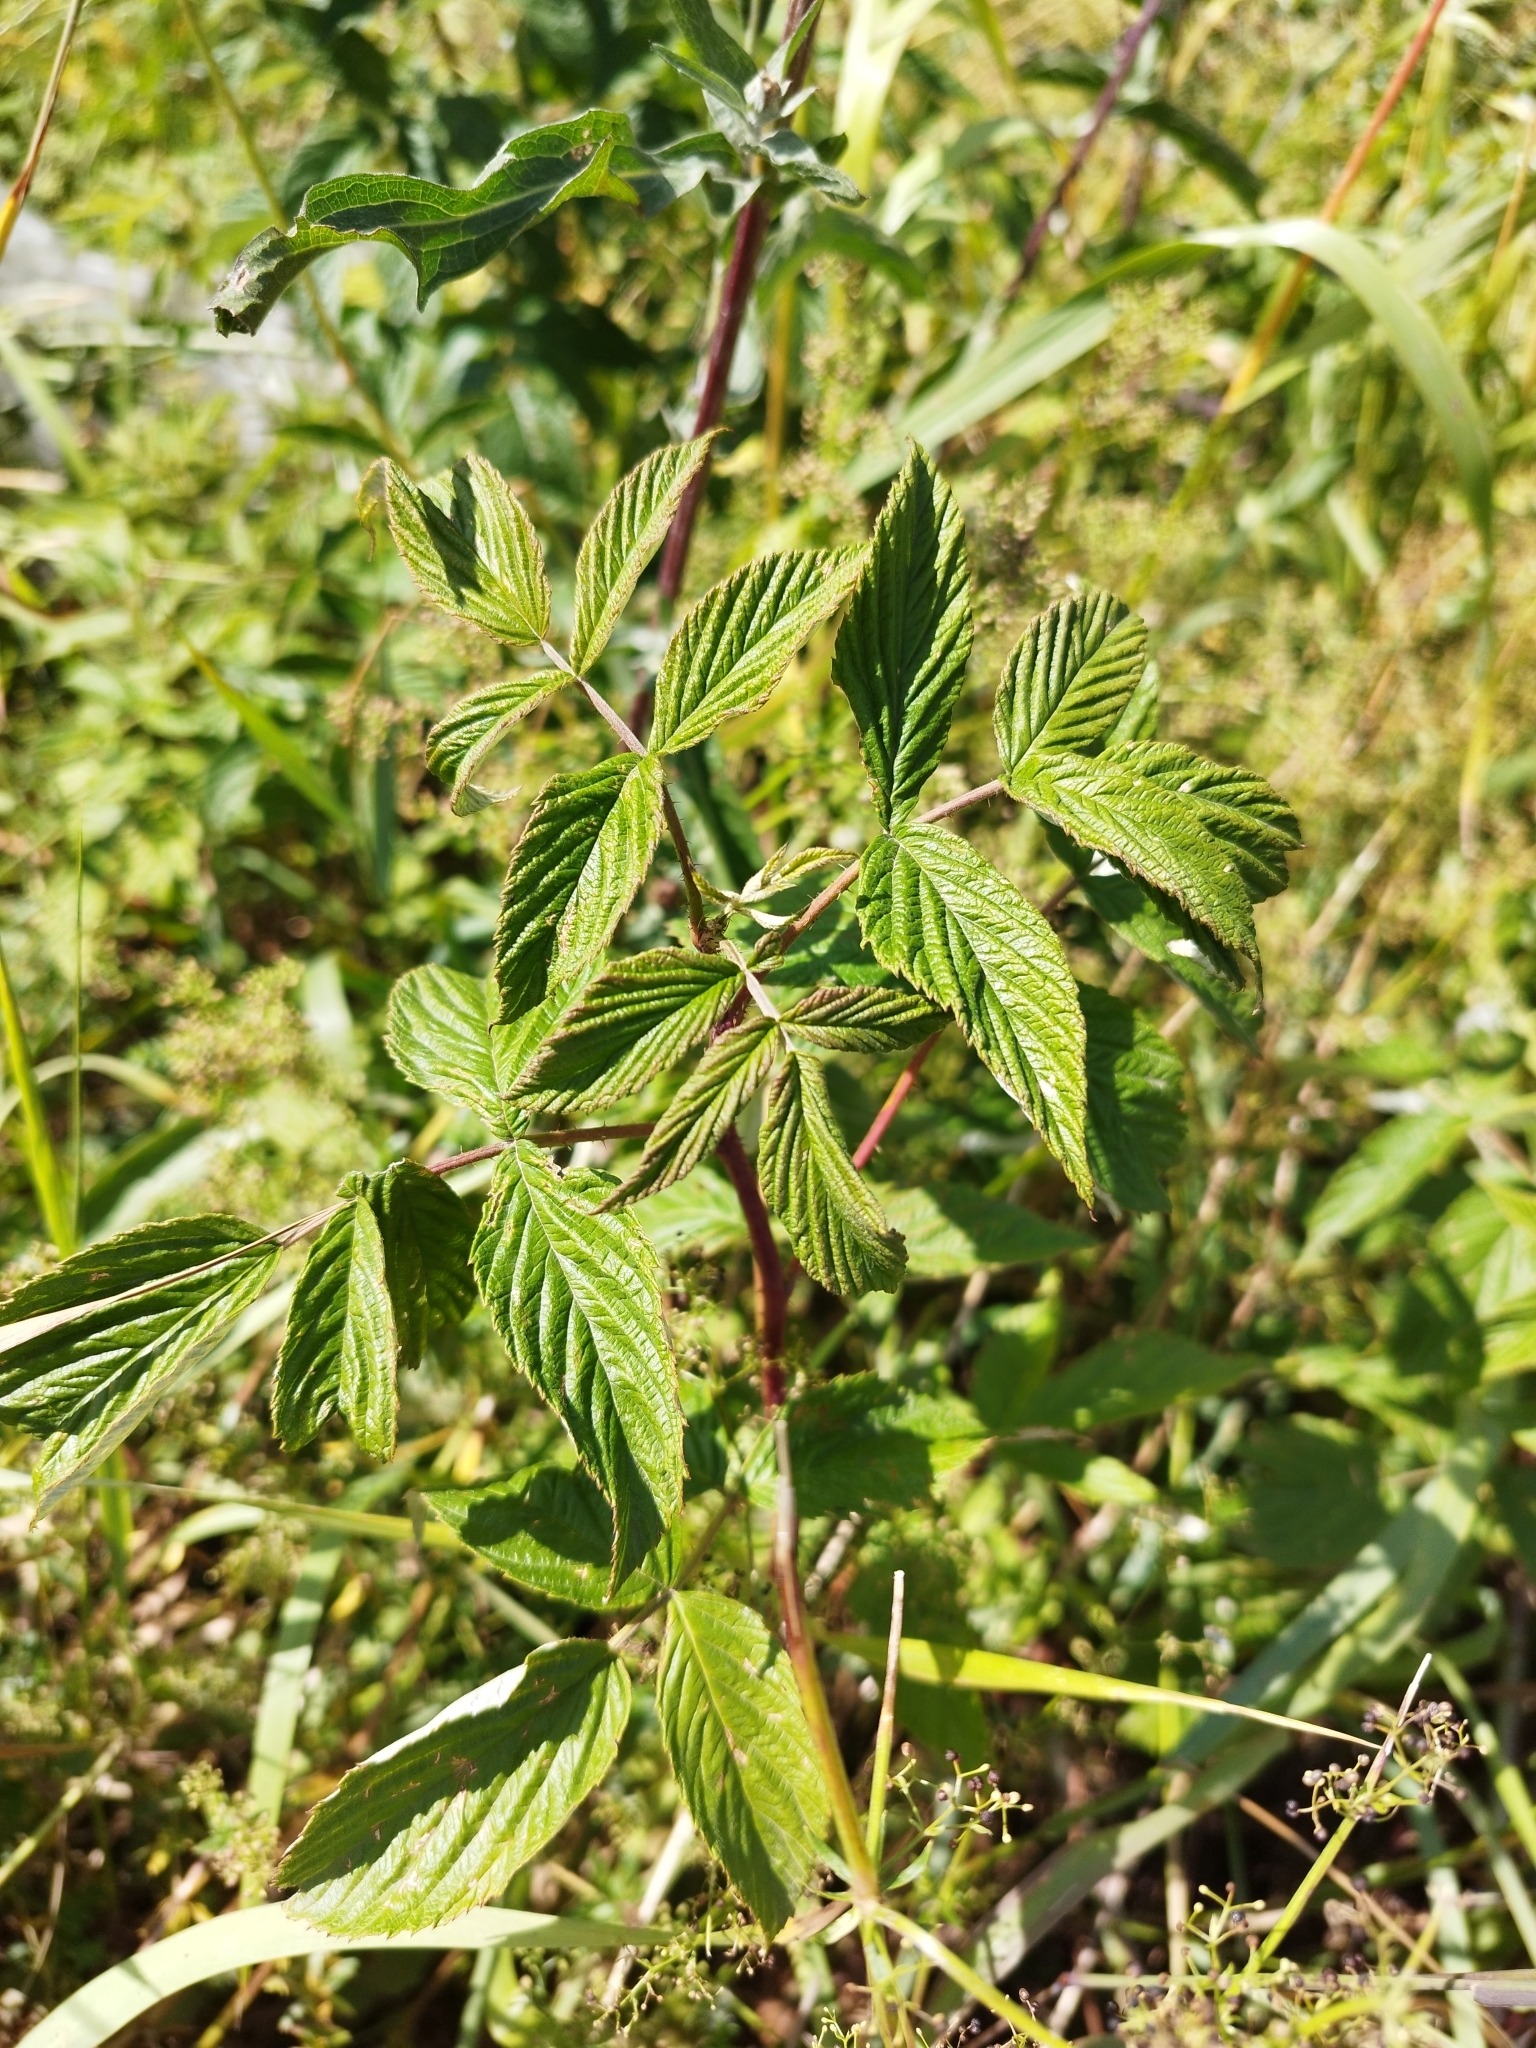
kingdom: Plantae
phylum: Tracheophyta
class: Magnoliopsida
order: Rosales
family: Rosaceae
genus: Rubus
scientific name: Rubus idaeus
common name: Raspberry
